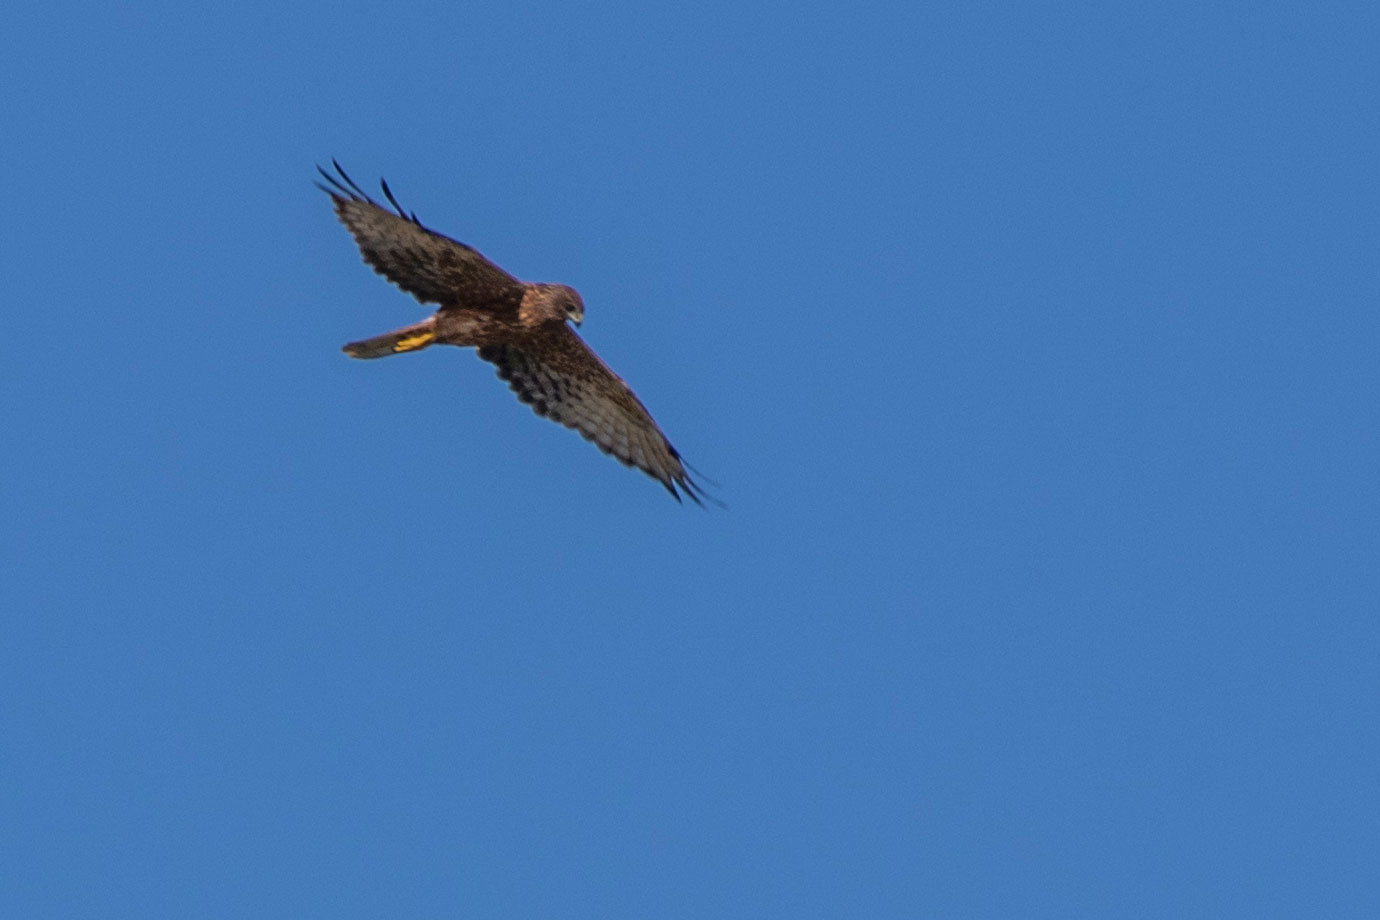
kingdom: Animalia
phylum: Chordata
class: Aves
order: Accipitriformes
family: Accipitridae
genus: Circus
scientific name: Circus approximans
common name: Swamp harrier
